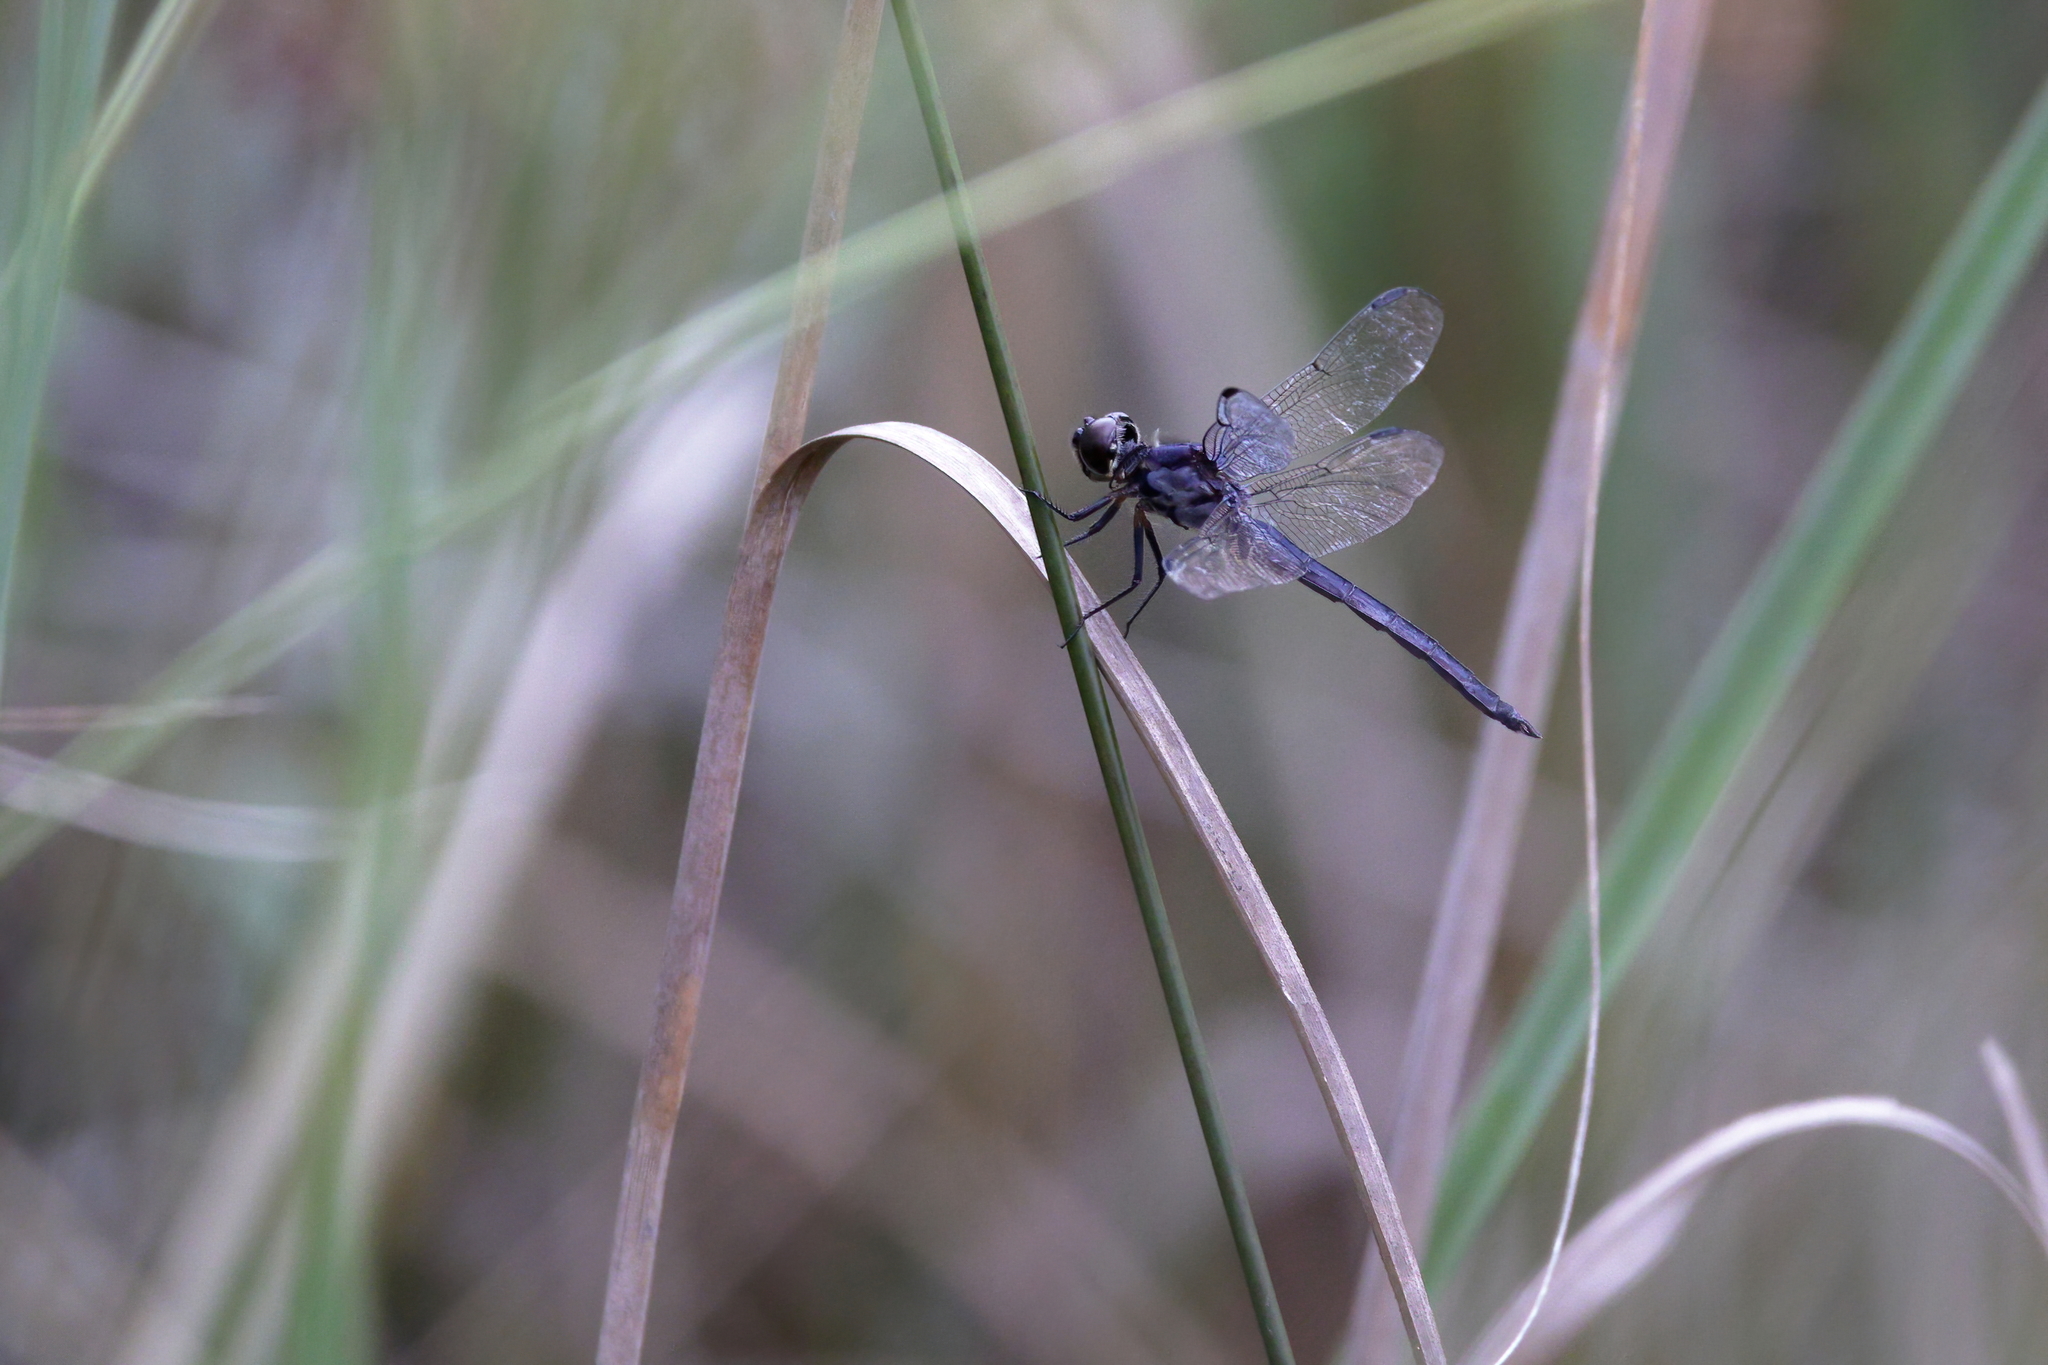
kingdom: Animalia
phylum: Arthropoda
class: Insecta
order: Odonata
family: Libellulidae
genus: Erythrodiplax
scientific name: Erythrodiplax berenice
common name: Seaside dragonlet
